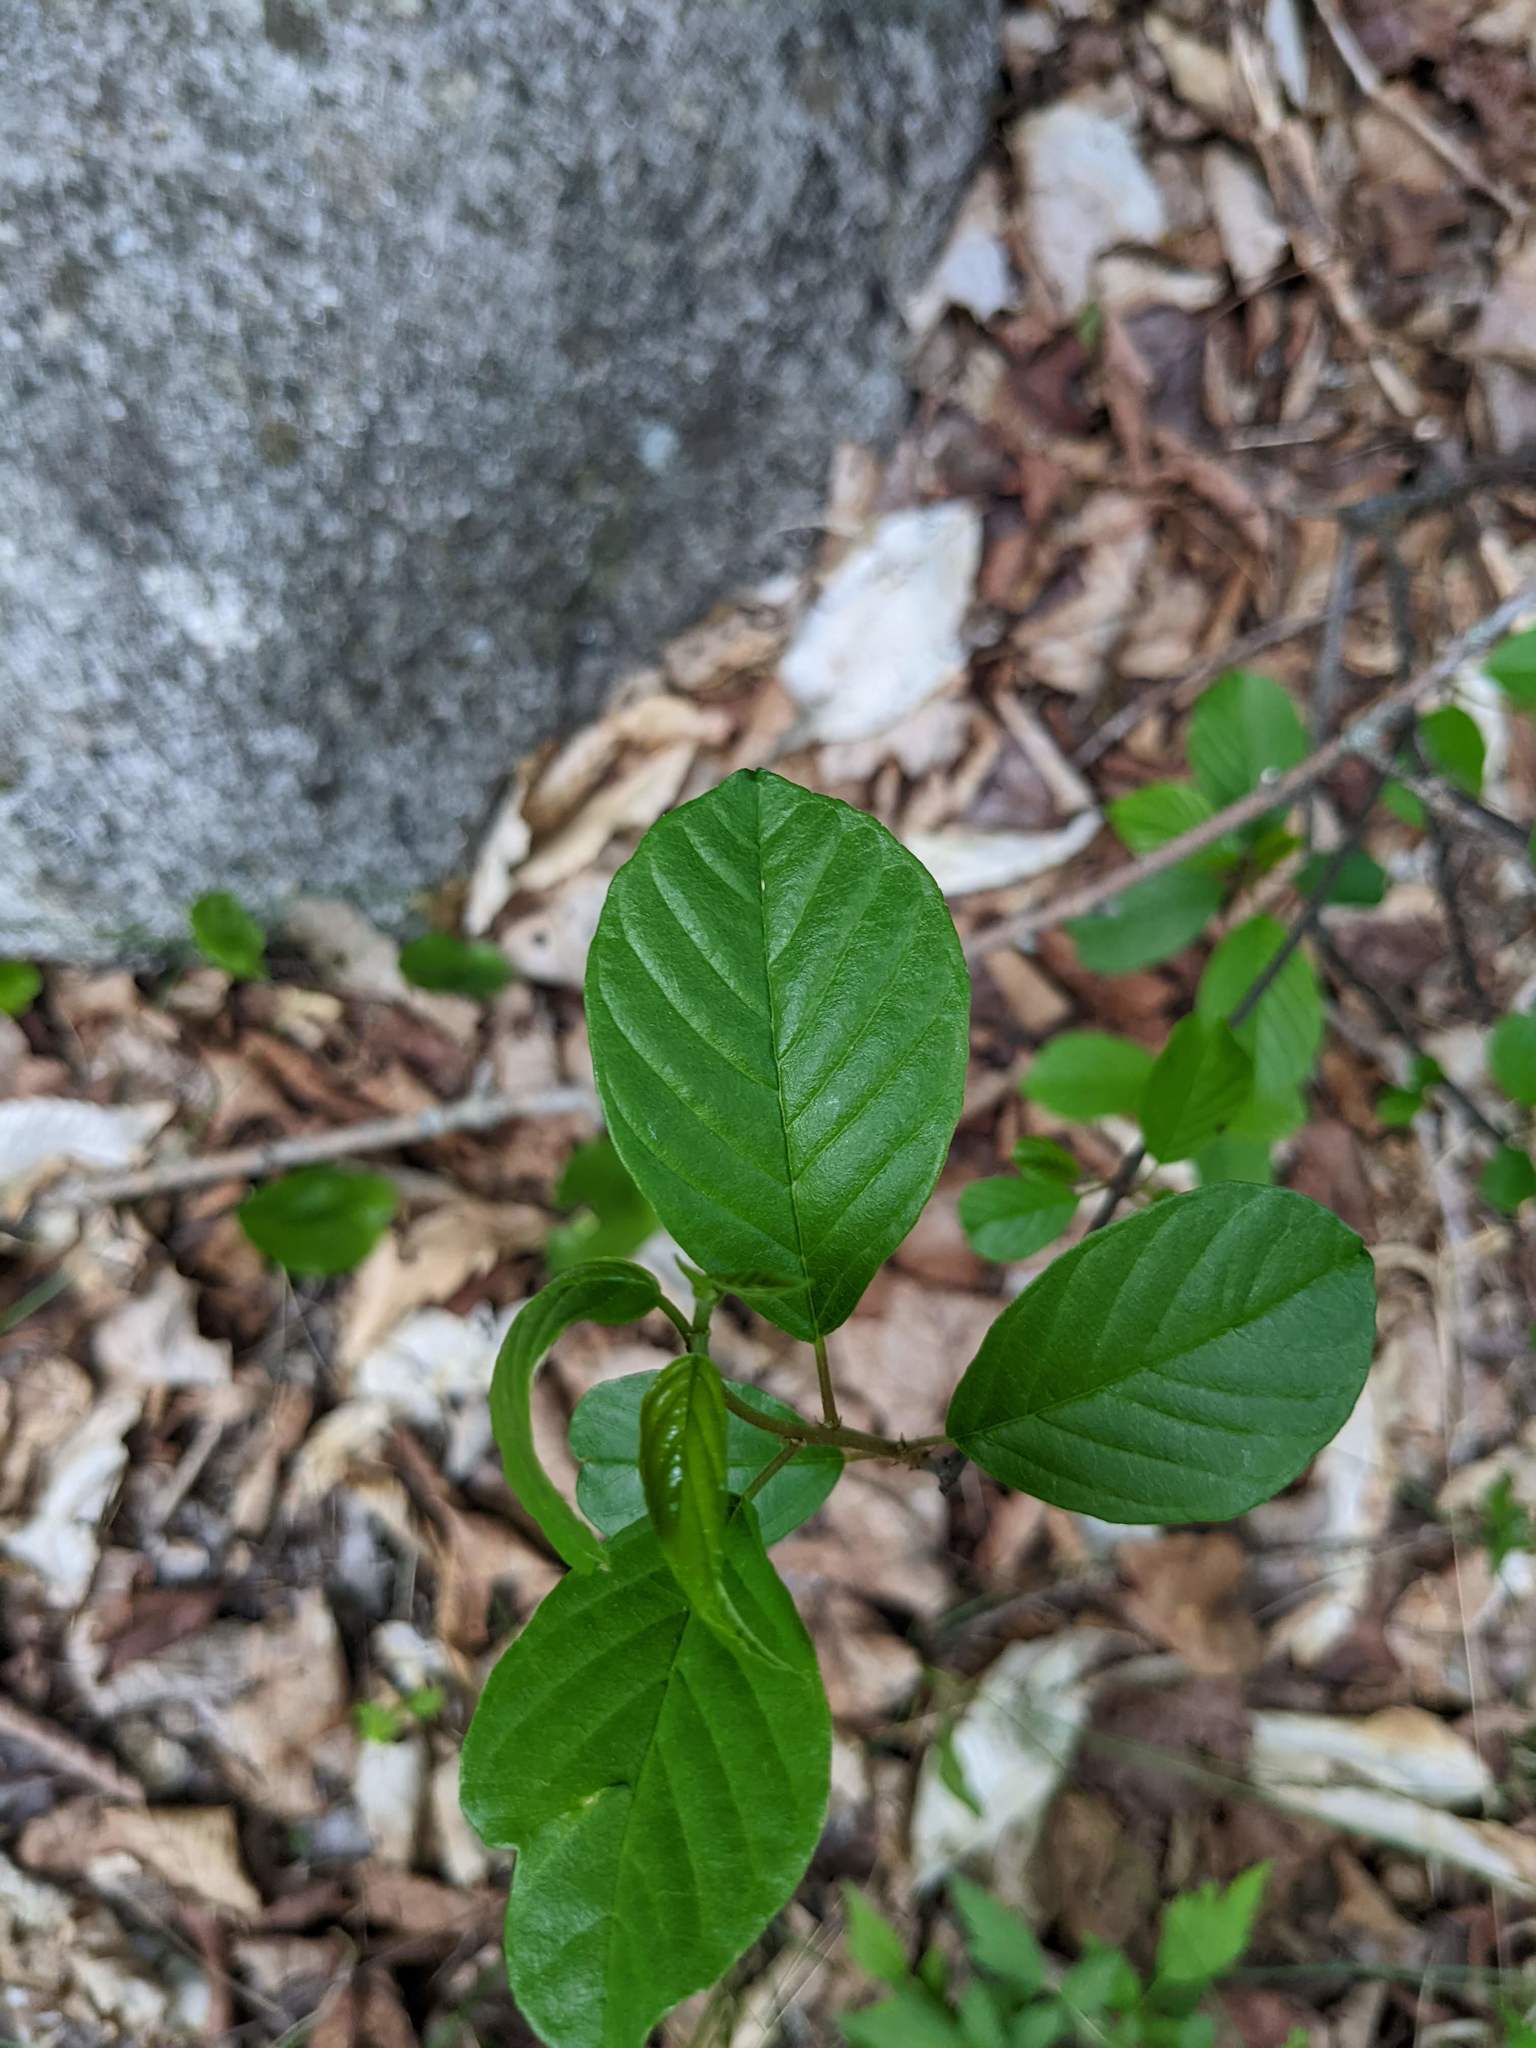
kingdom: Plantae
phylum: Tracheophyta
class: Magnoliopsida
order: Rosales
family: Rhamnaceae
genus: Frangula
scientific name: Frangula alnus
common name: Alder buckthorn
